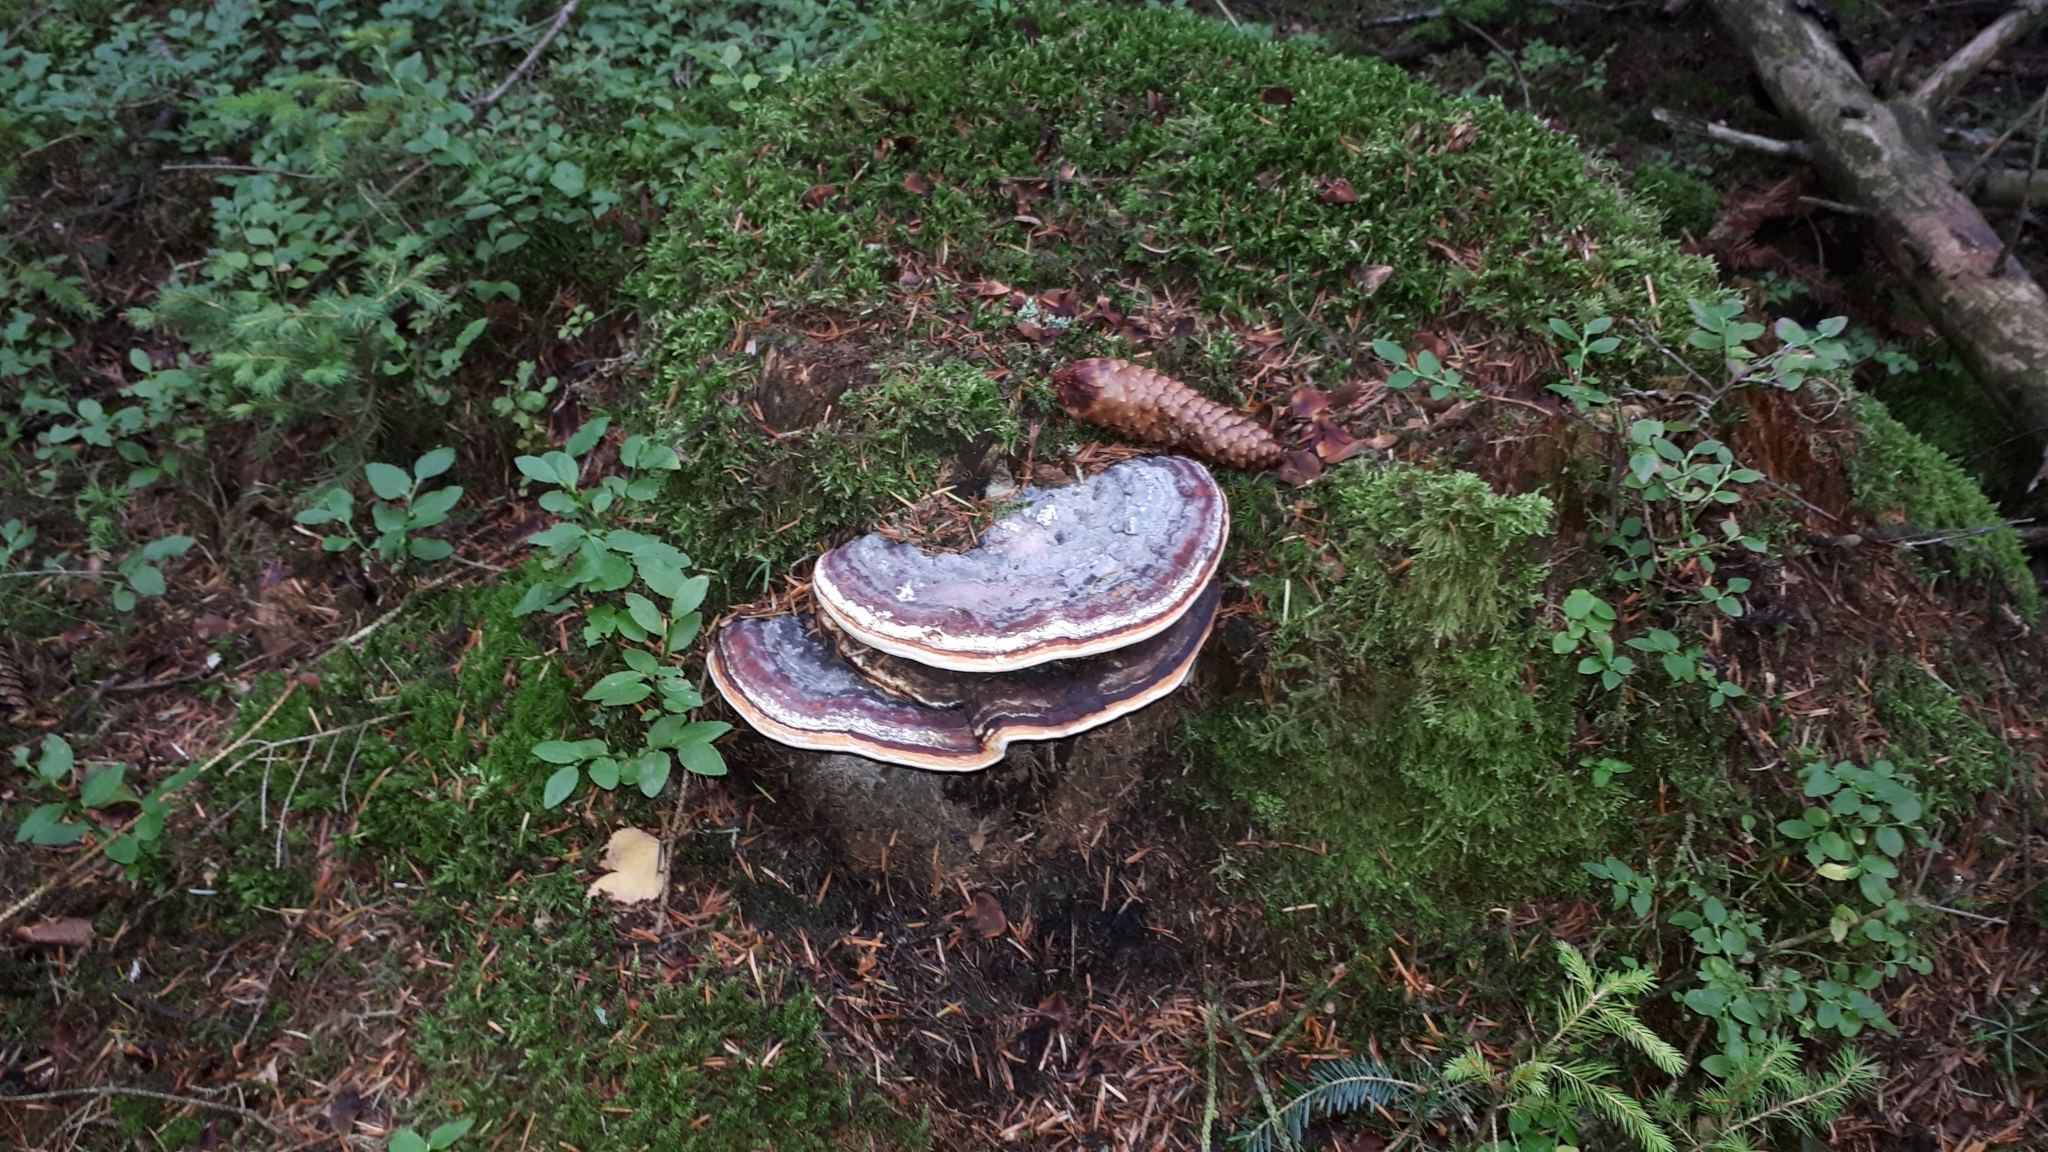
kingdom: Fungi
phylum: Basidiomycota
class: Agaricomycetes
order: Polyporales
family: Fomitopsidaceae
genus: Fomitopsis
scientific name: Fomitopsis pinicola
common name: Red-belted bracket
